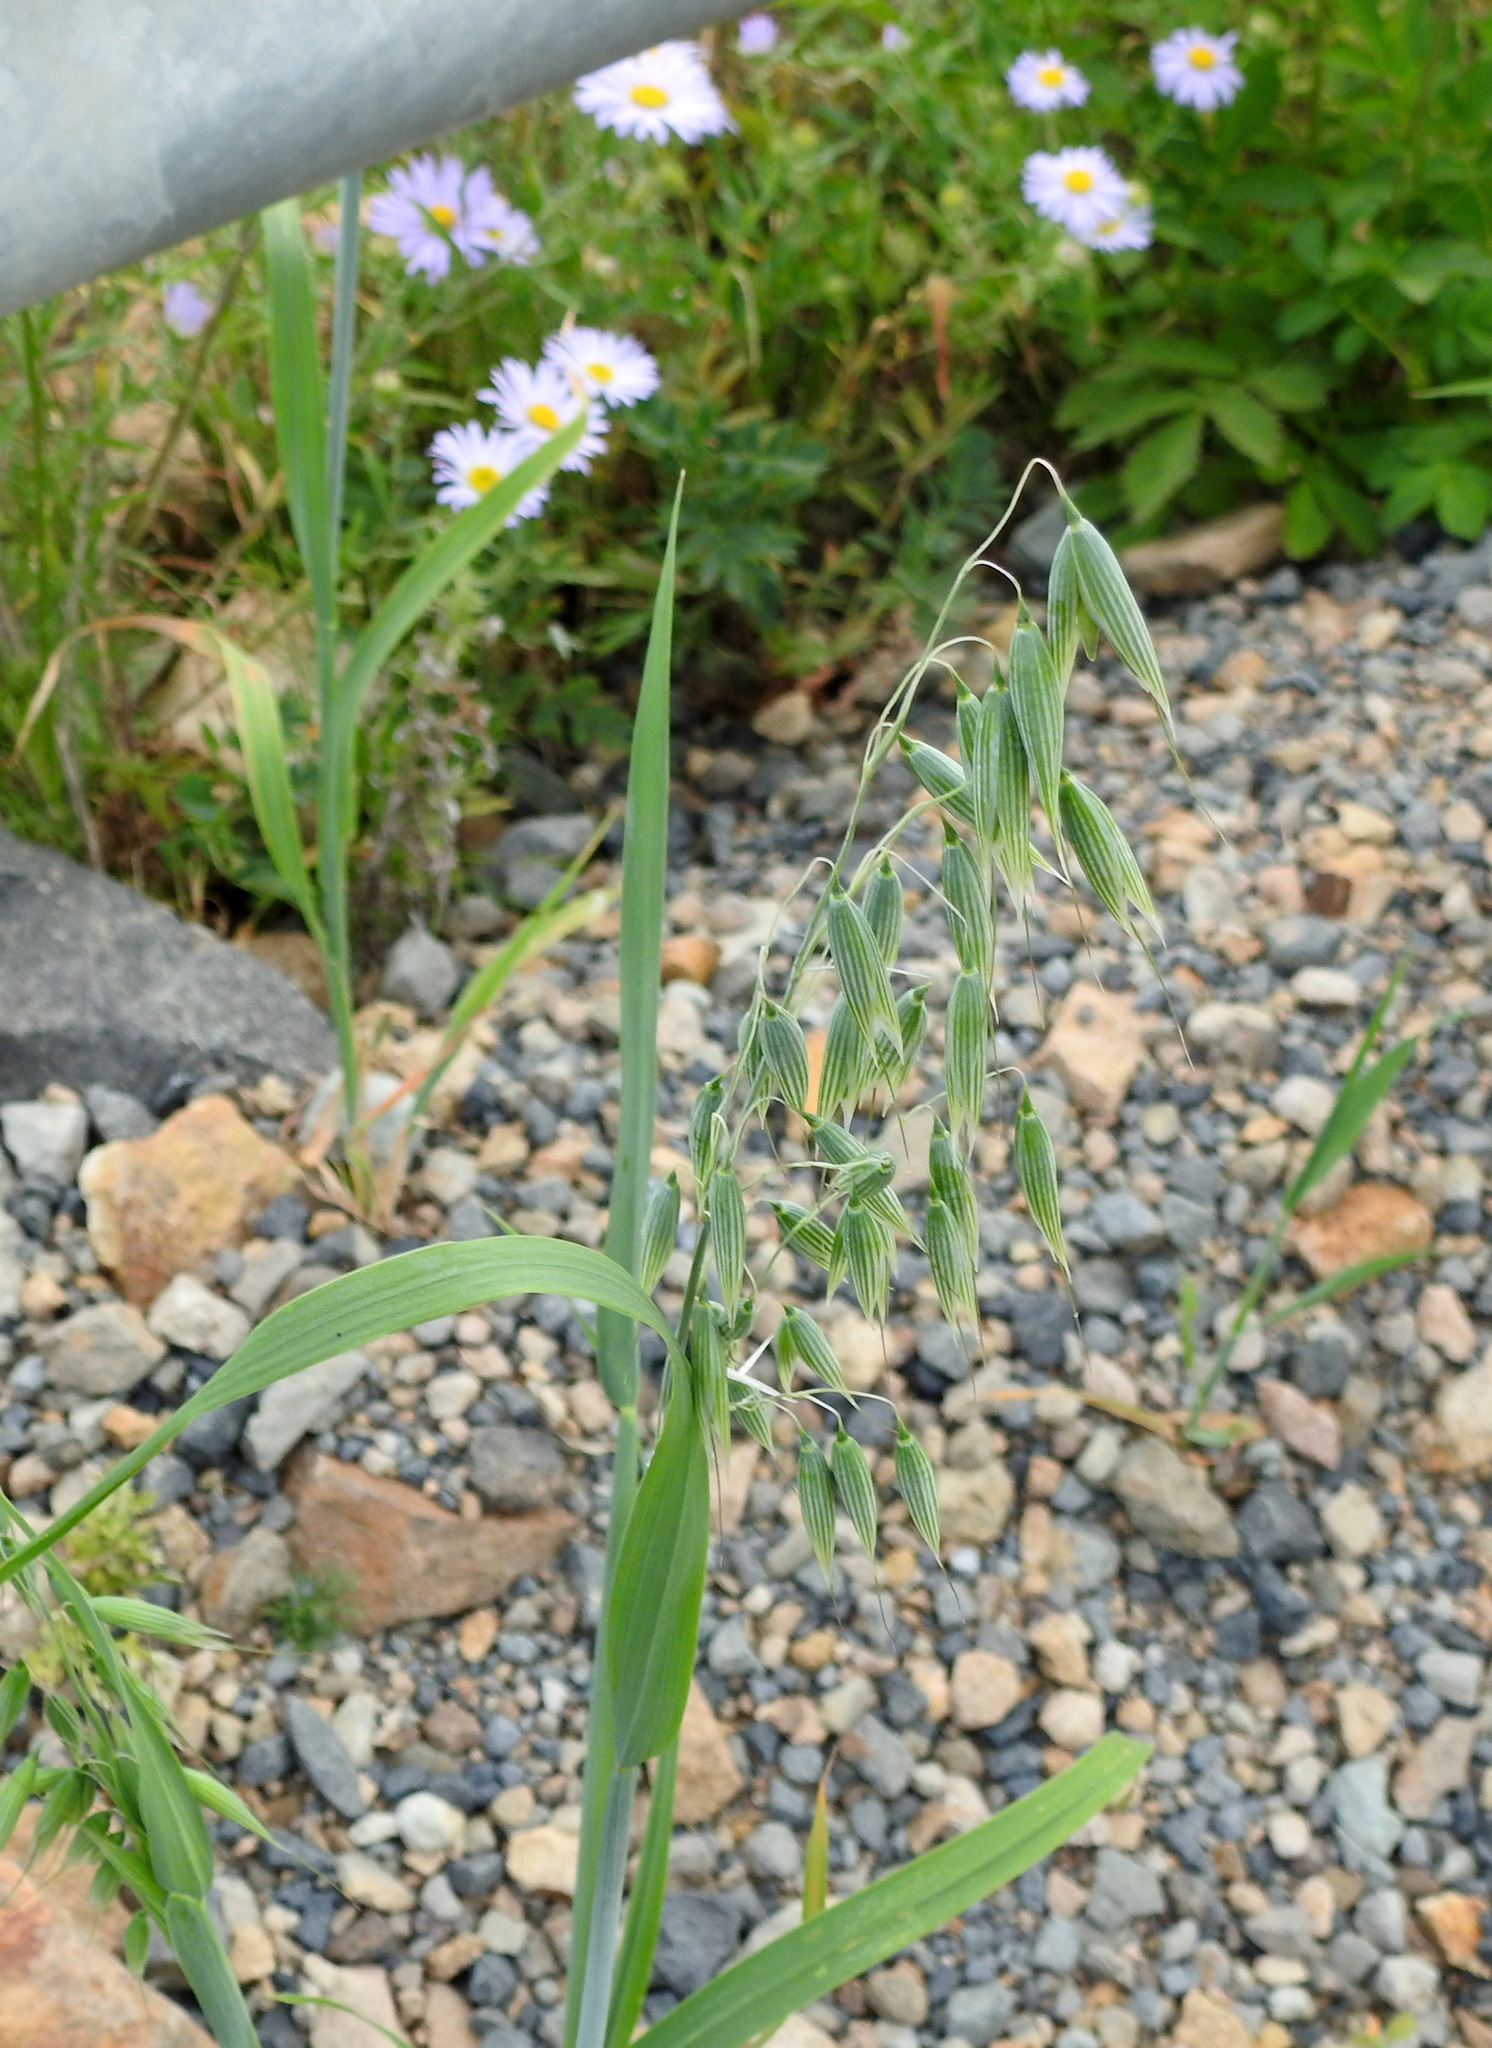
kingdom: Plantae
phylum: Tracheophyta
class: Liliopsida
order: Poales
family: Poaceae
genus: Avena
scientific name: Avena sativa
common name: Oat
